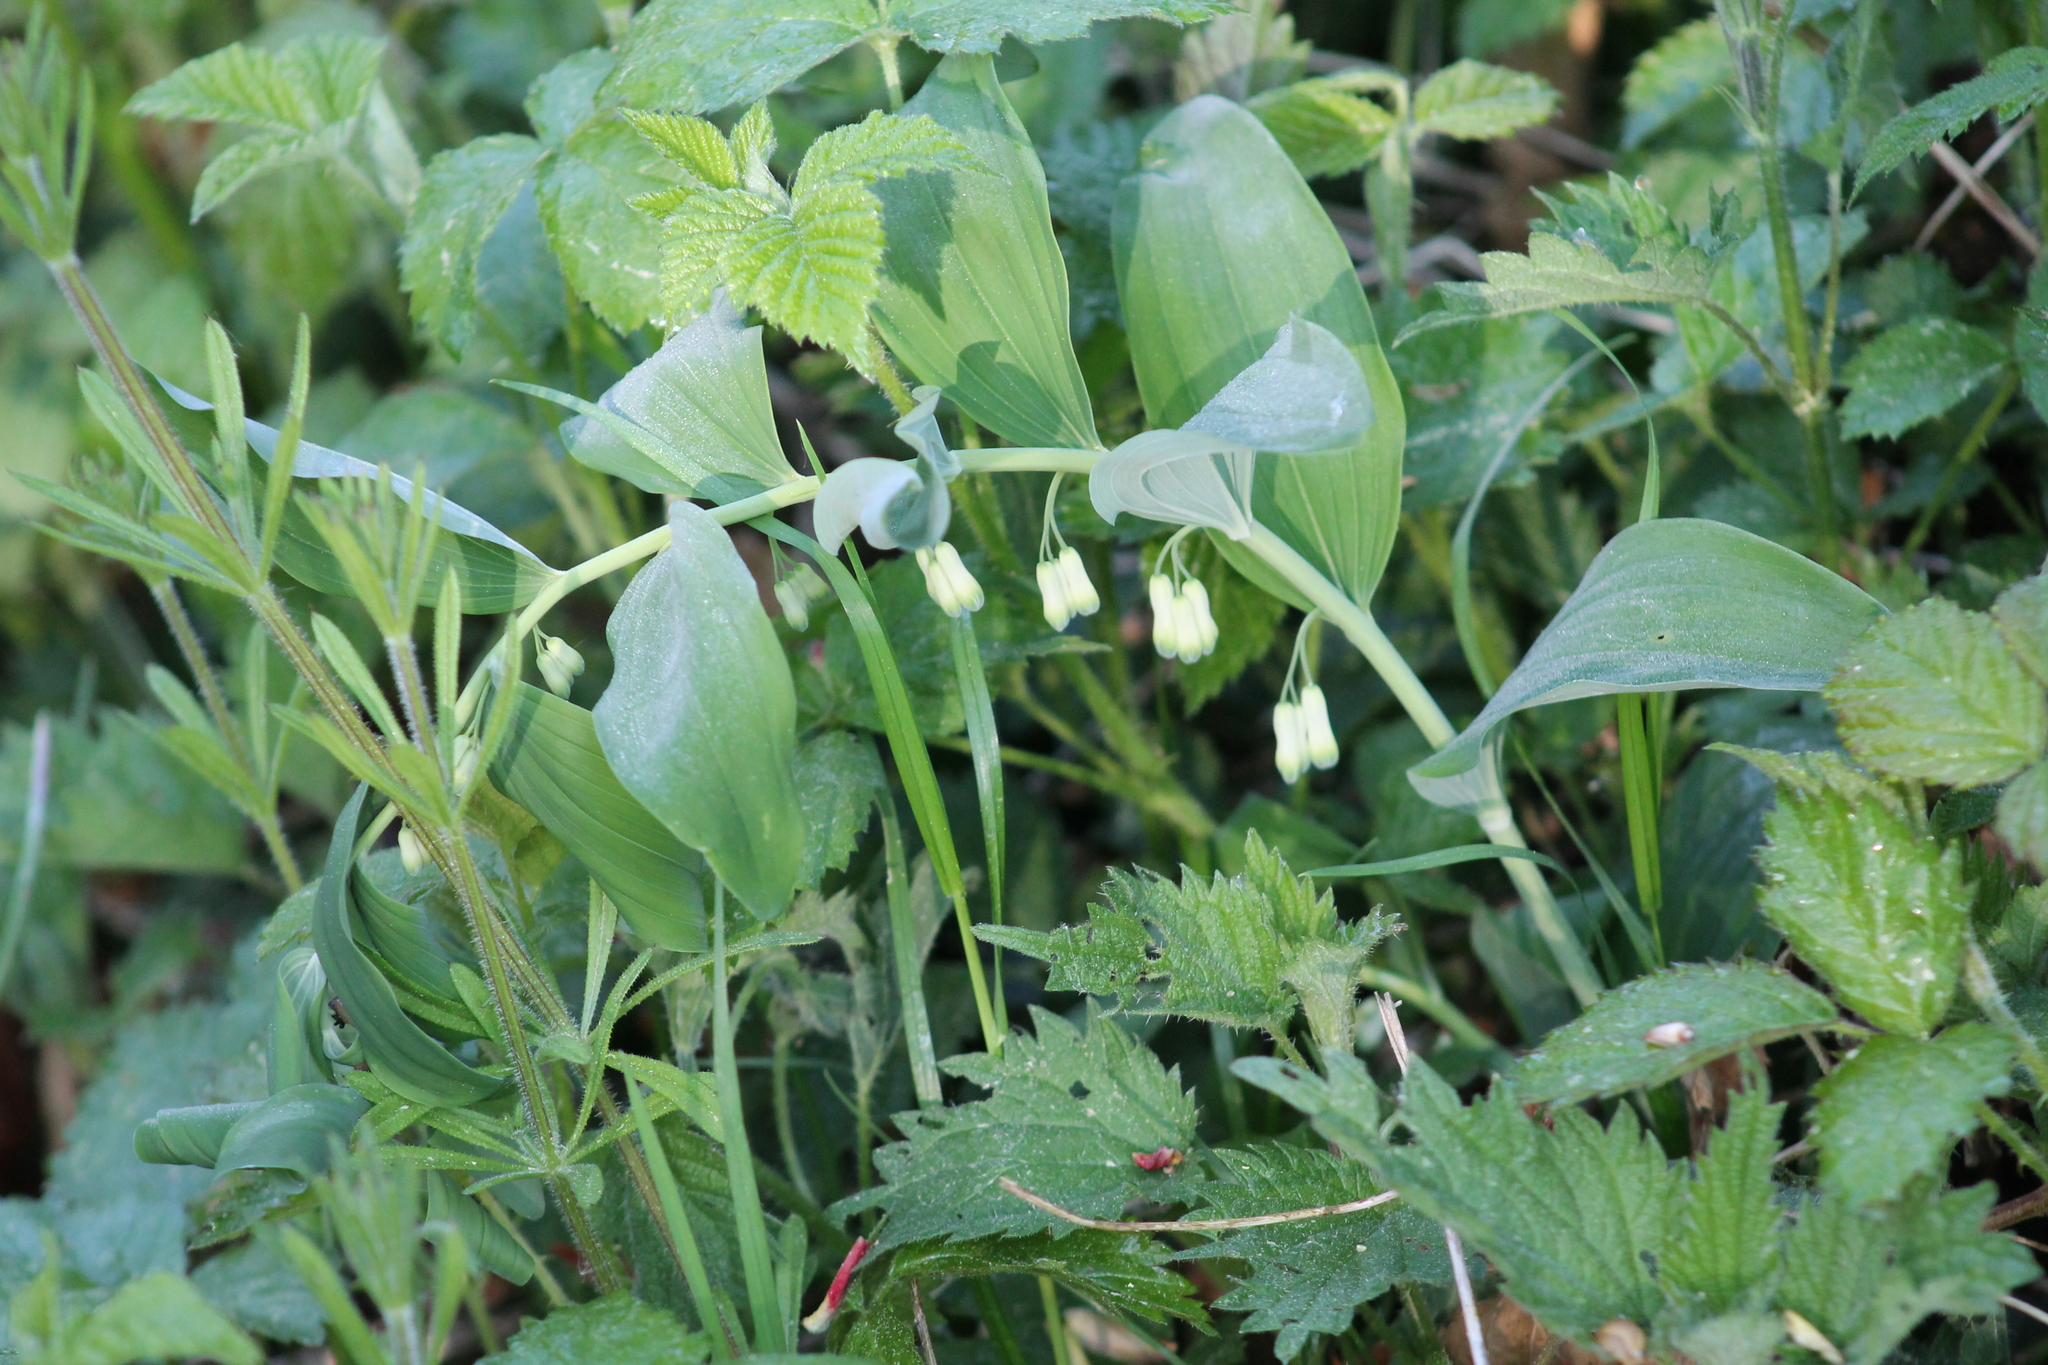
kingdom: Plantae
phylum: Tracheophyta
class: Liliopsida
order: Asparagales
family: Asparagaceae
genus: Polygonatum
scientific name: Polygonatum multiflorum
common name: Solomon's-seal
